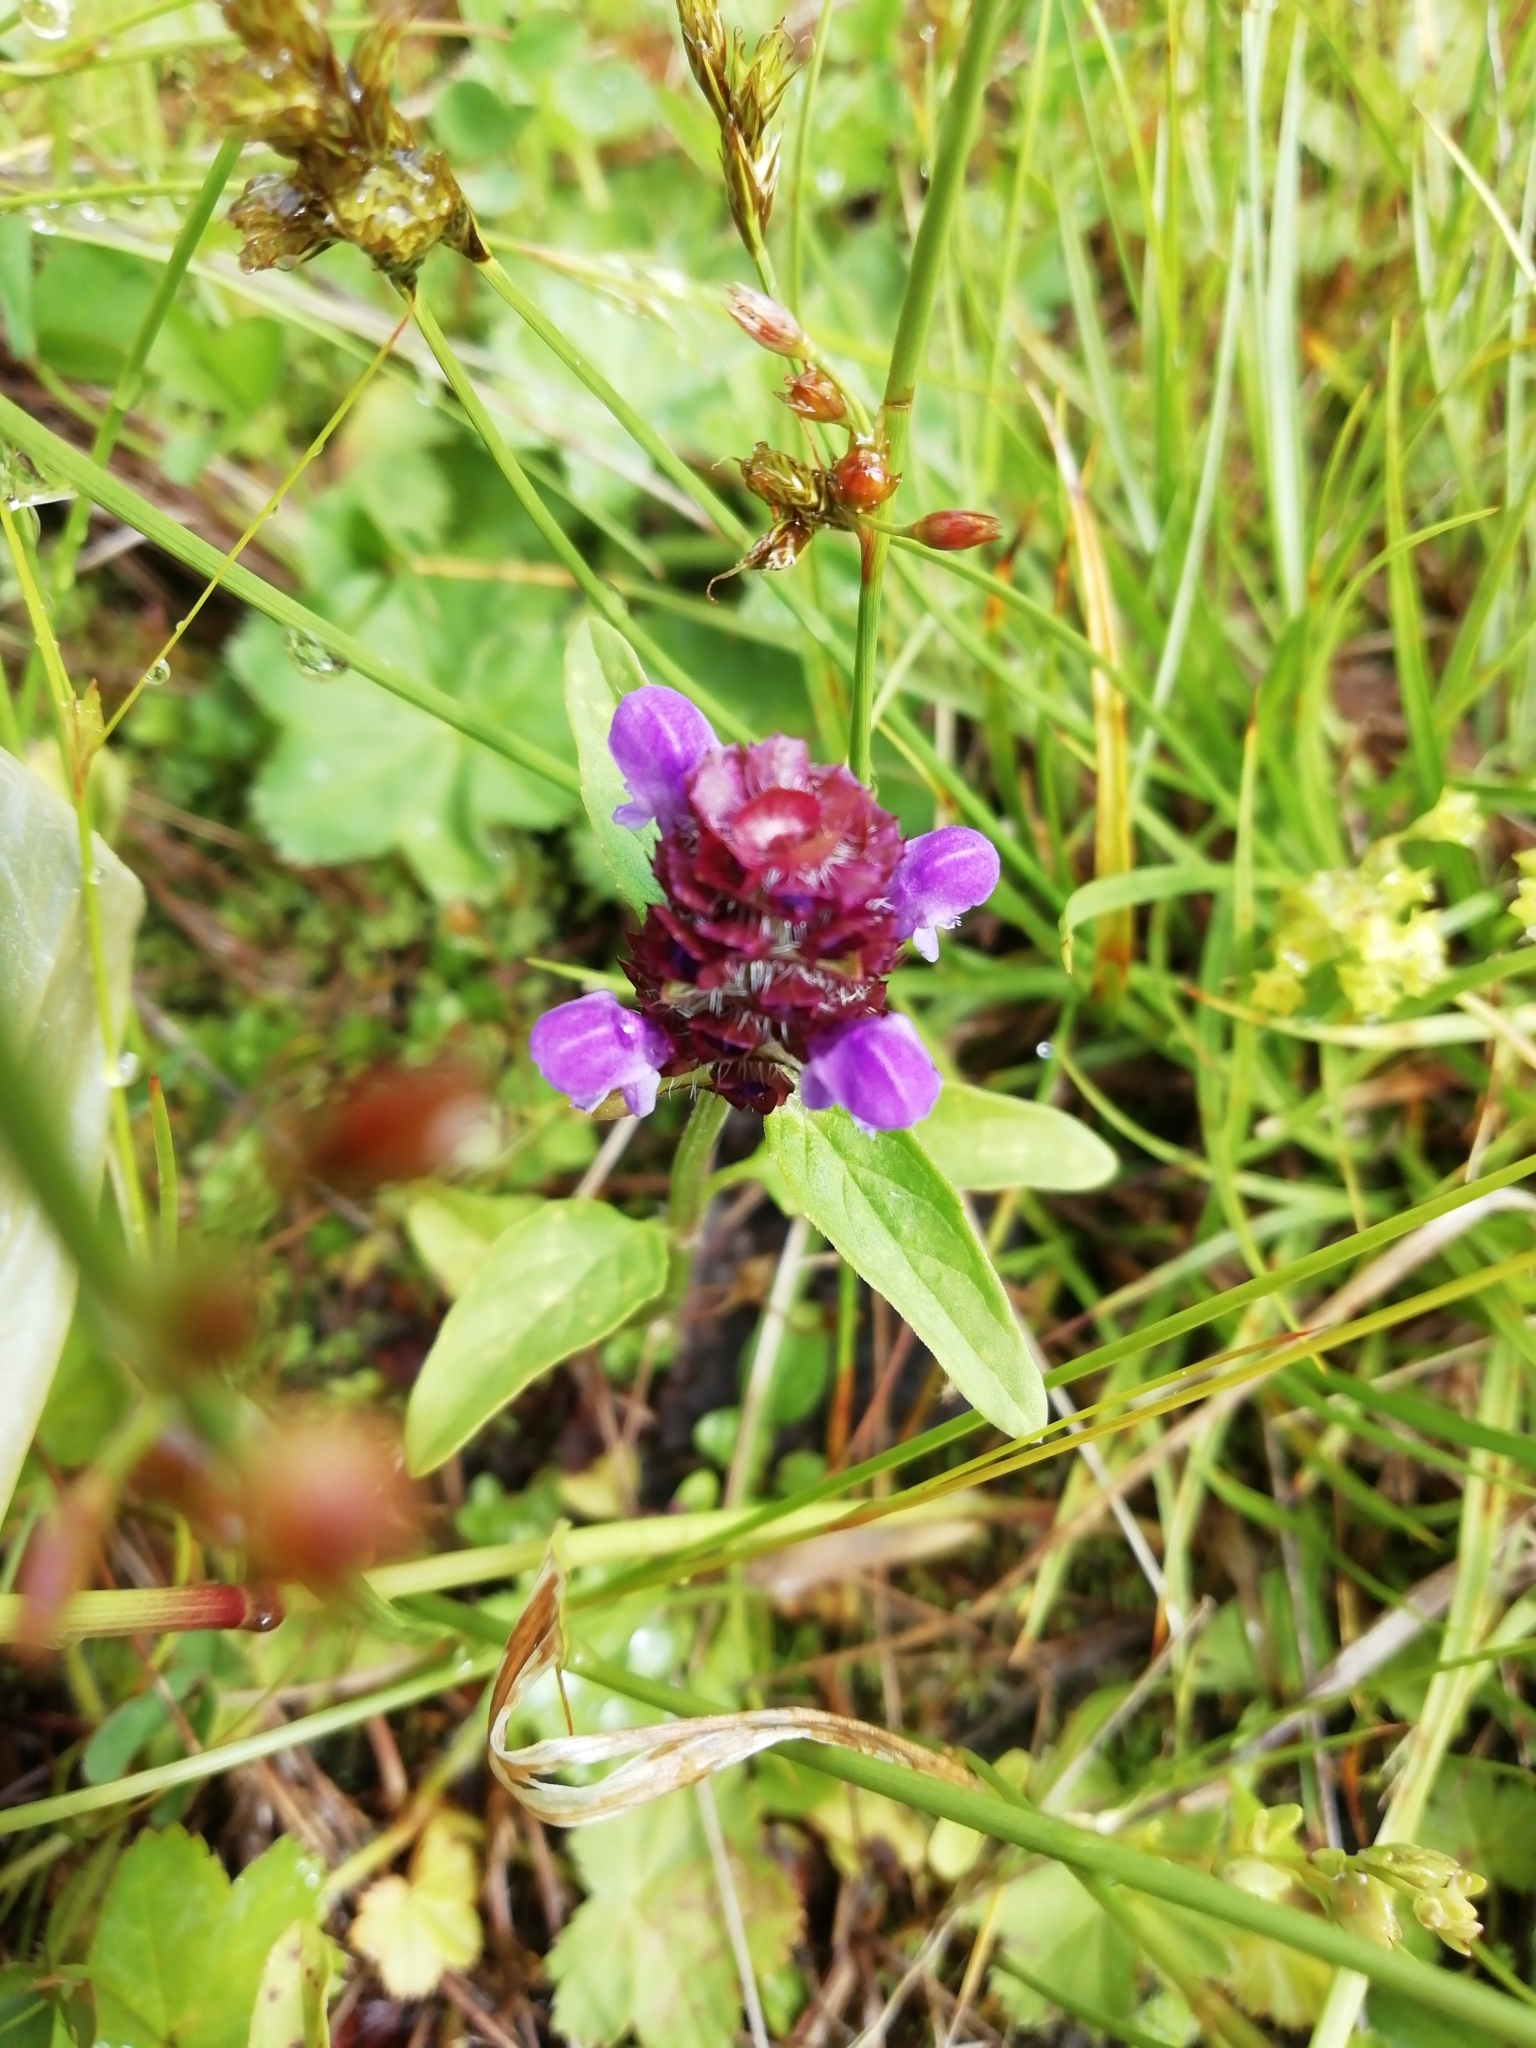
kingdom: Plantae
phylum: Tracheophyta
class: Magnoliopsida
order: Lamiales
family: Lamiaceae
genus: Prunella
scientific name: Prunella vulgaris
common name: Heal-all
